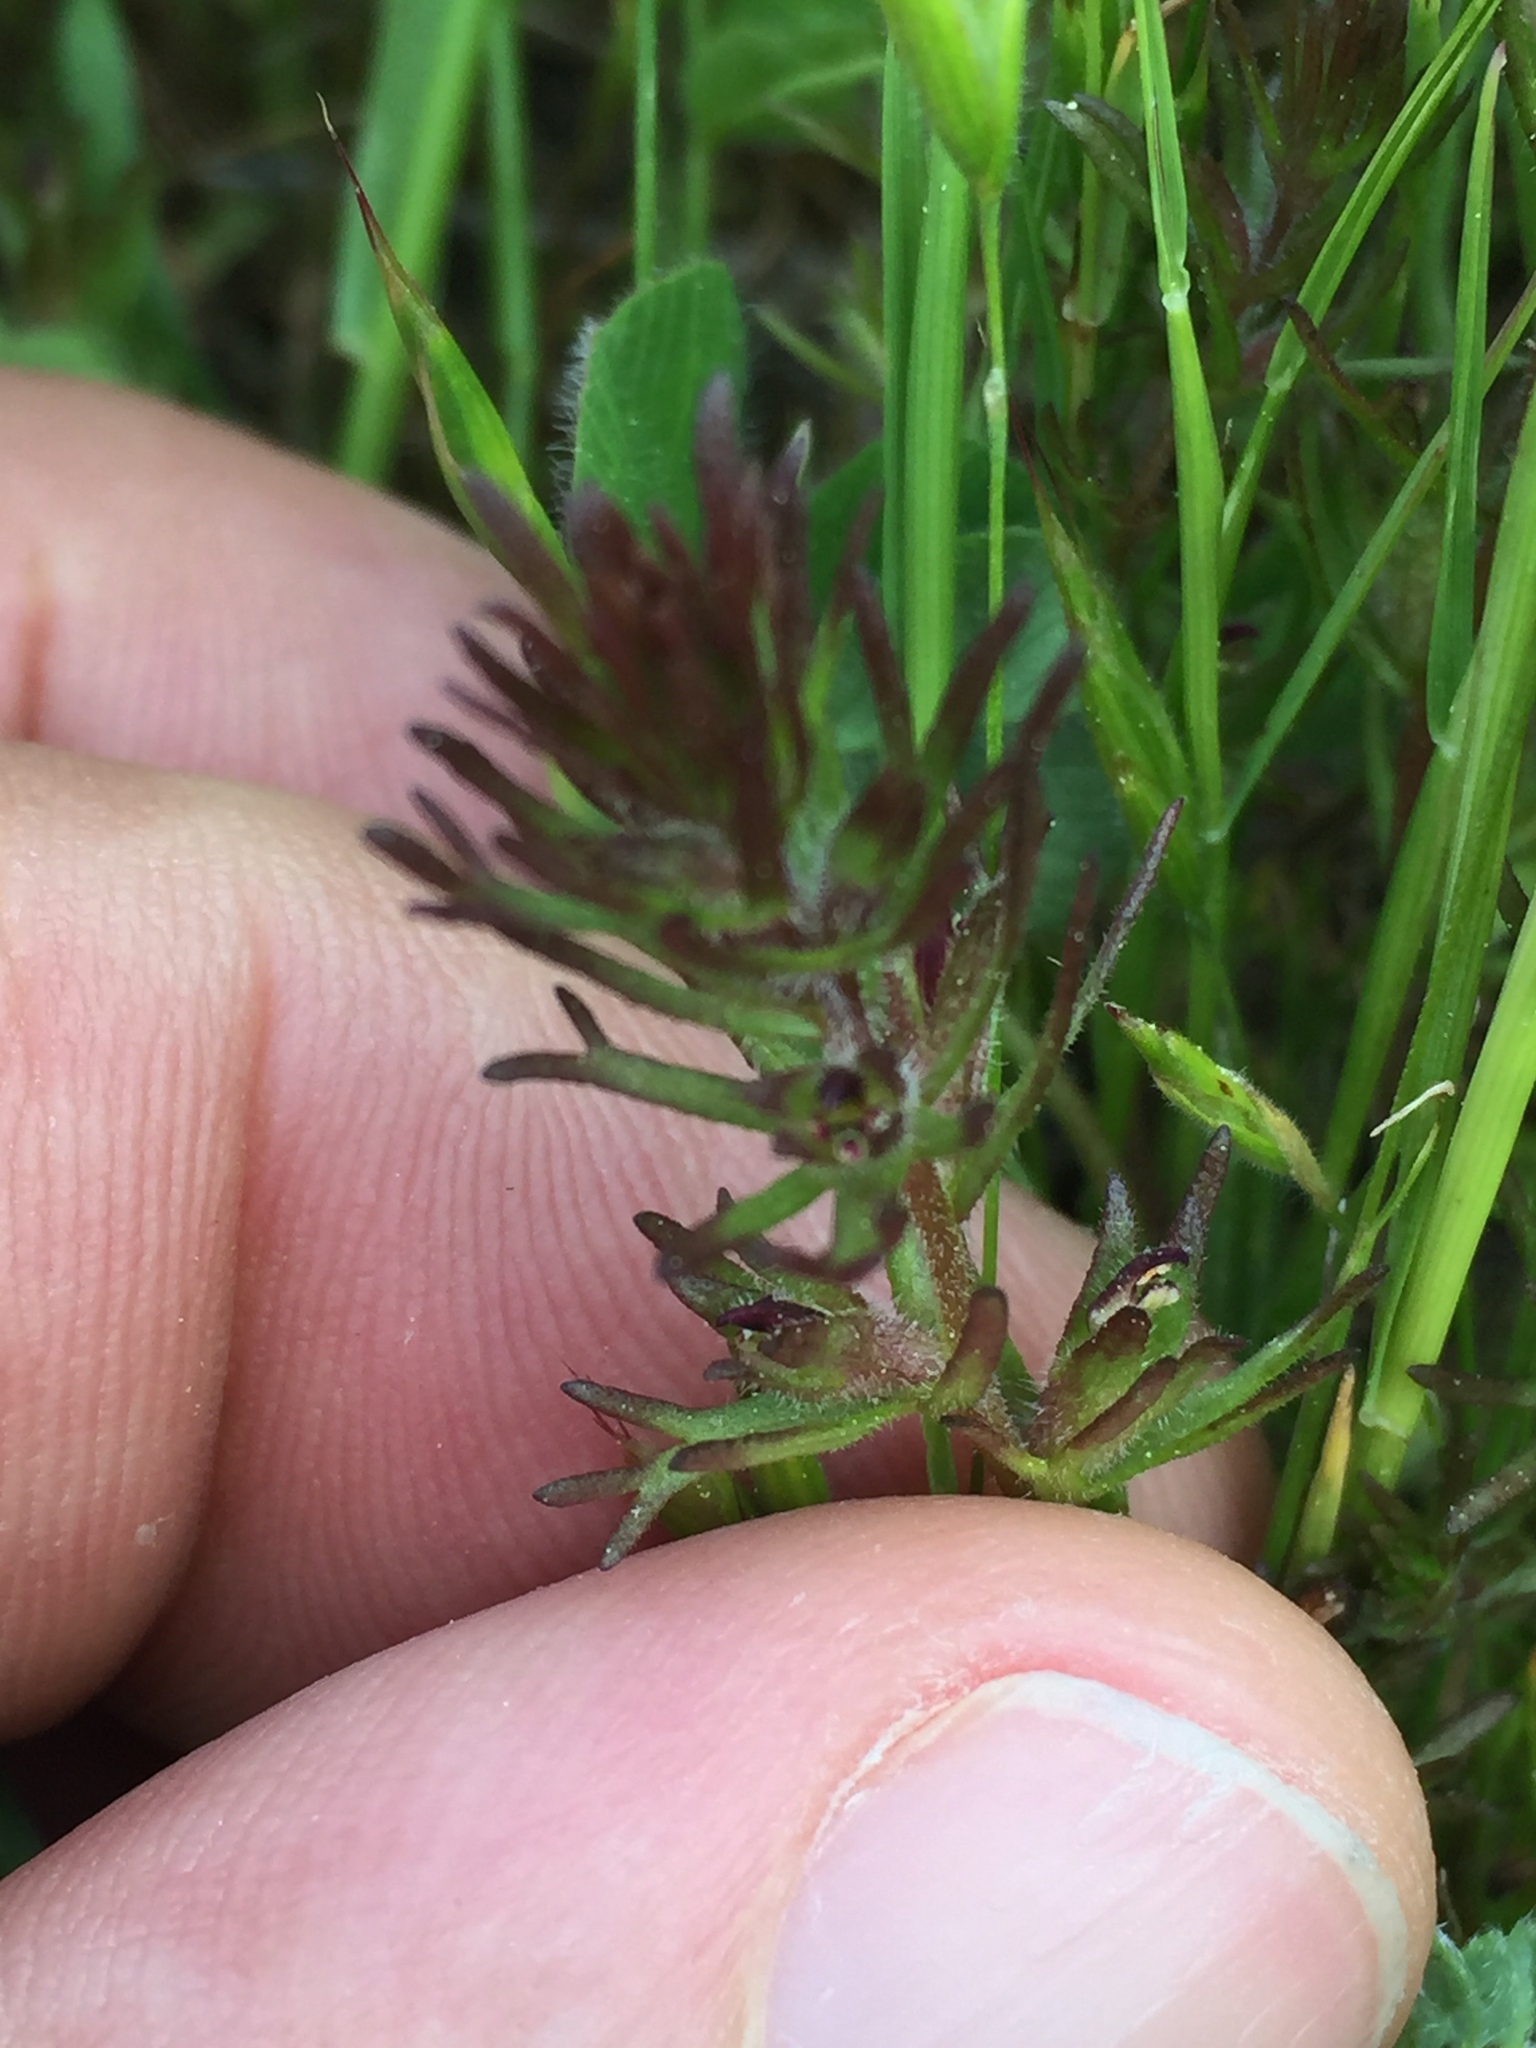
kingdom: Plantae
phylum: Tracheophyta
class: Magnoliopsida
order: Lamiales
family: Orobanchaceae
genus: Triphysaria
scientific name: Triphysaria pusilla
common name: Dwarf false owl-clover
